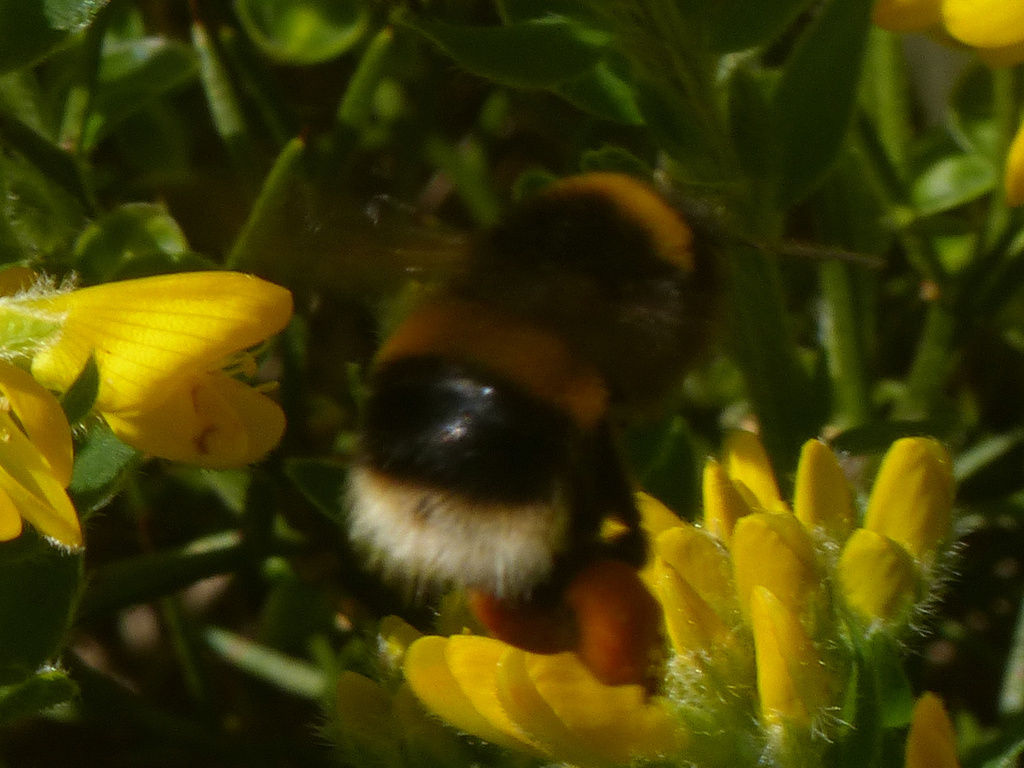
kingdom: Animalia
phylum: Arthropoda
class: Insecta
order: Hymenoptera
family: Apidae
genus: Bombus
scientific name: Bombus terrestris
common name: Buff-tailed bumblebee
